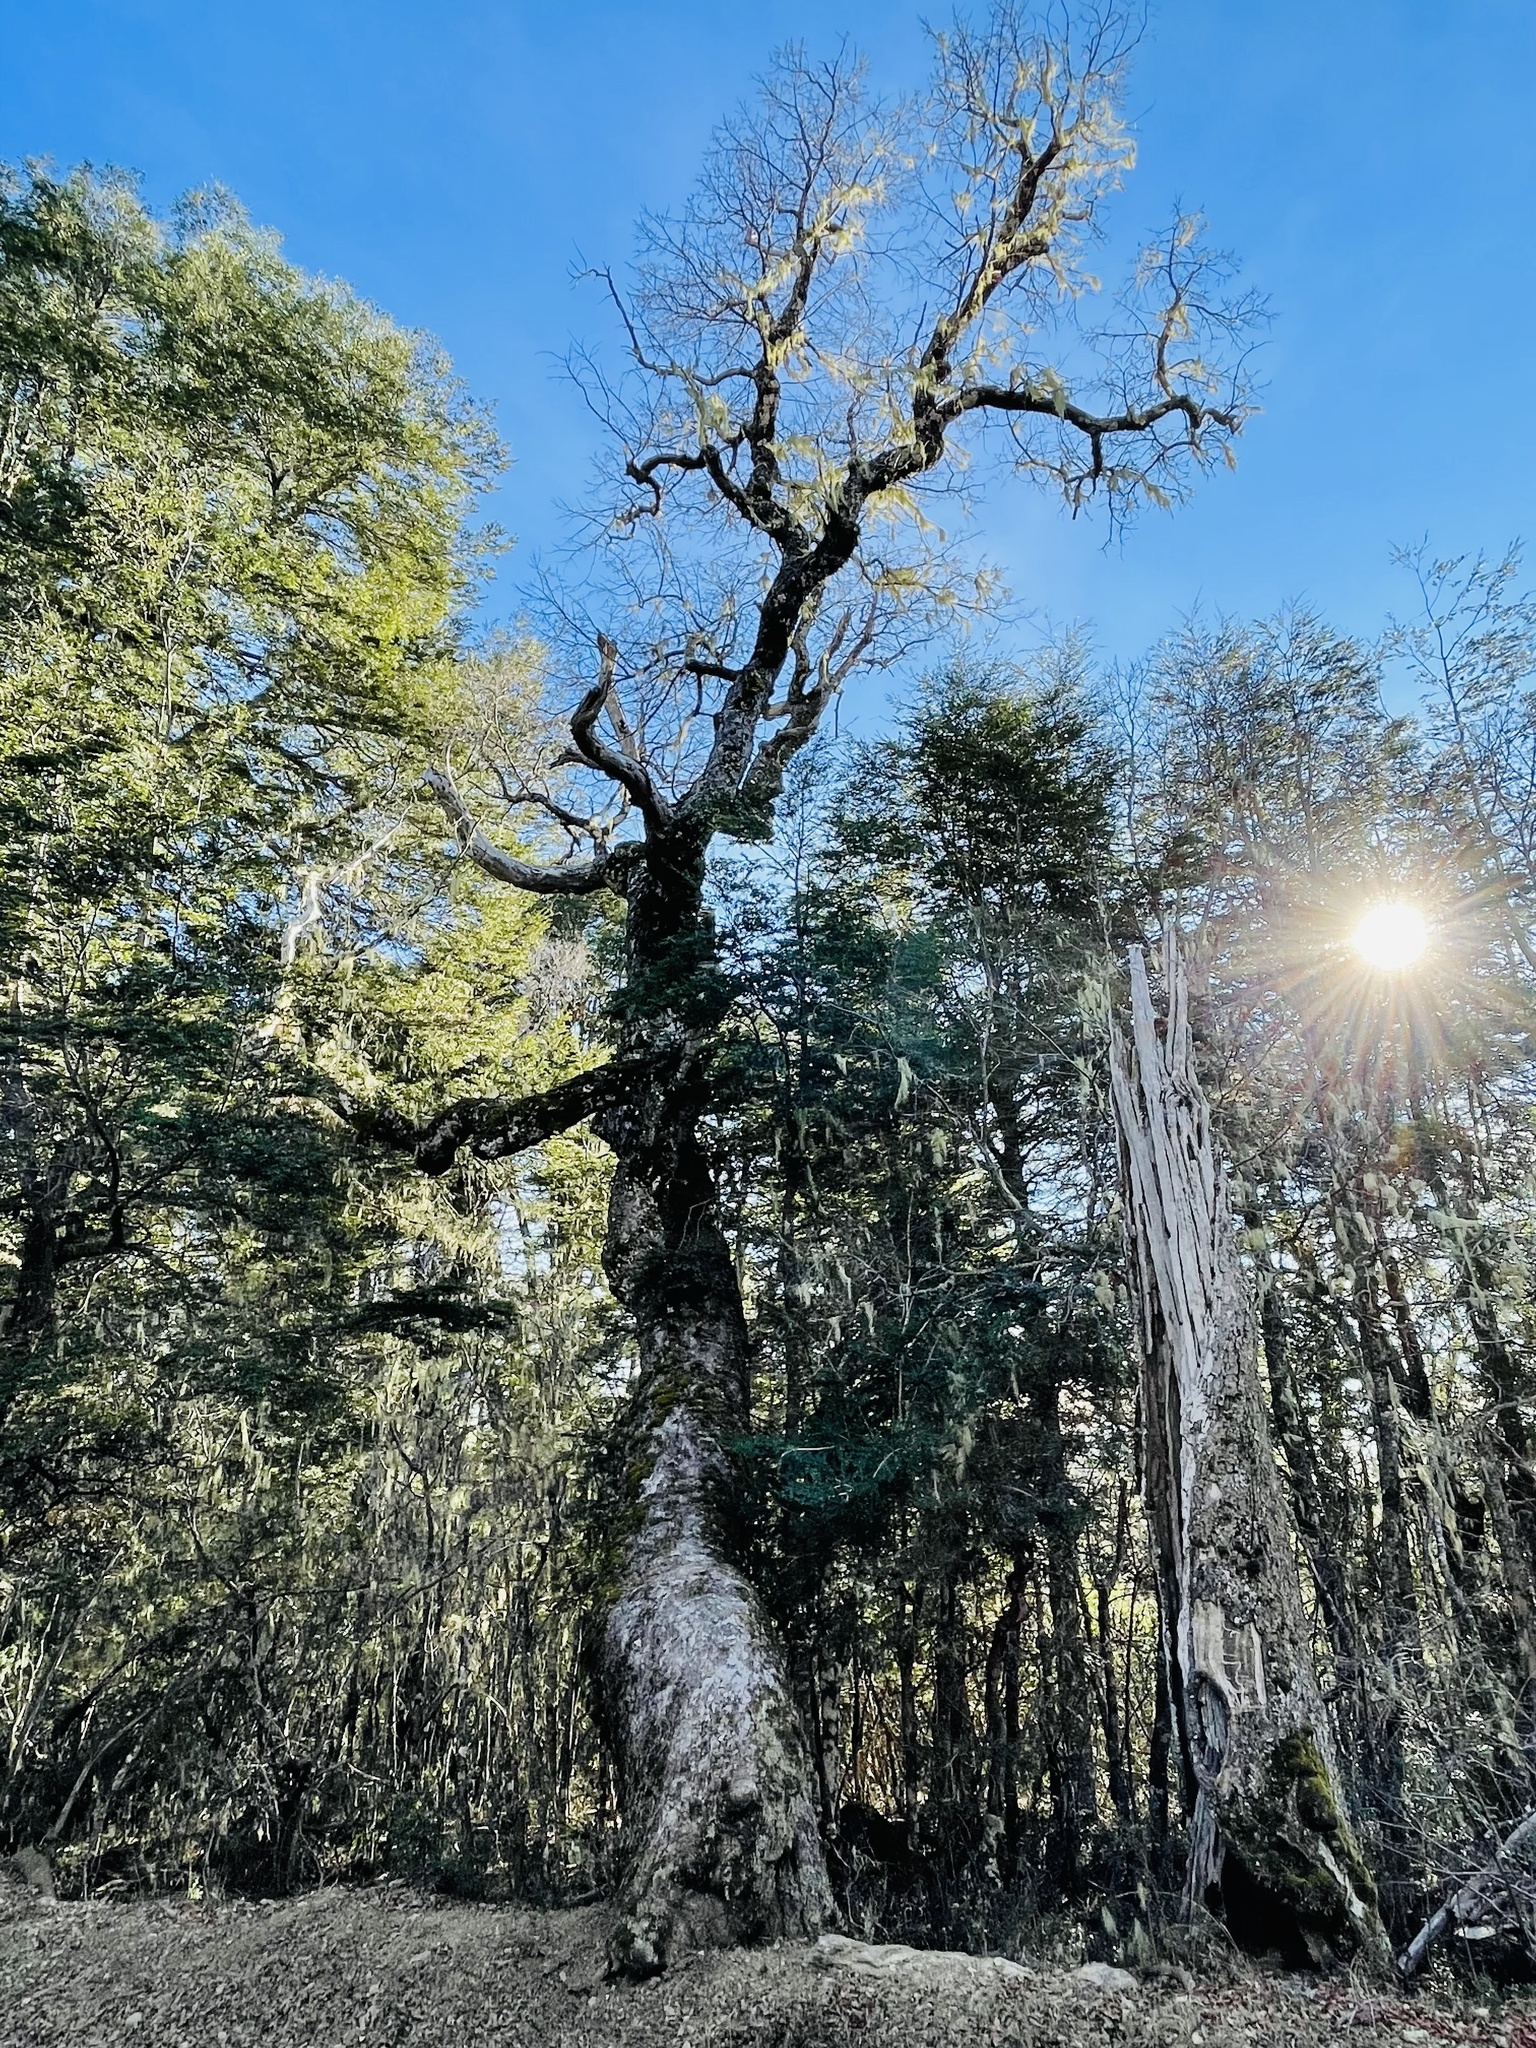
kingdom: Plantae
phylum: Tracheophyta
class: Magnoliopsida
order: Fagales
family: Nothofagaceae
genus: Nothofagus
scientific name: Nothofagus dombeyi
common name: Coigue
